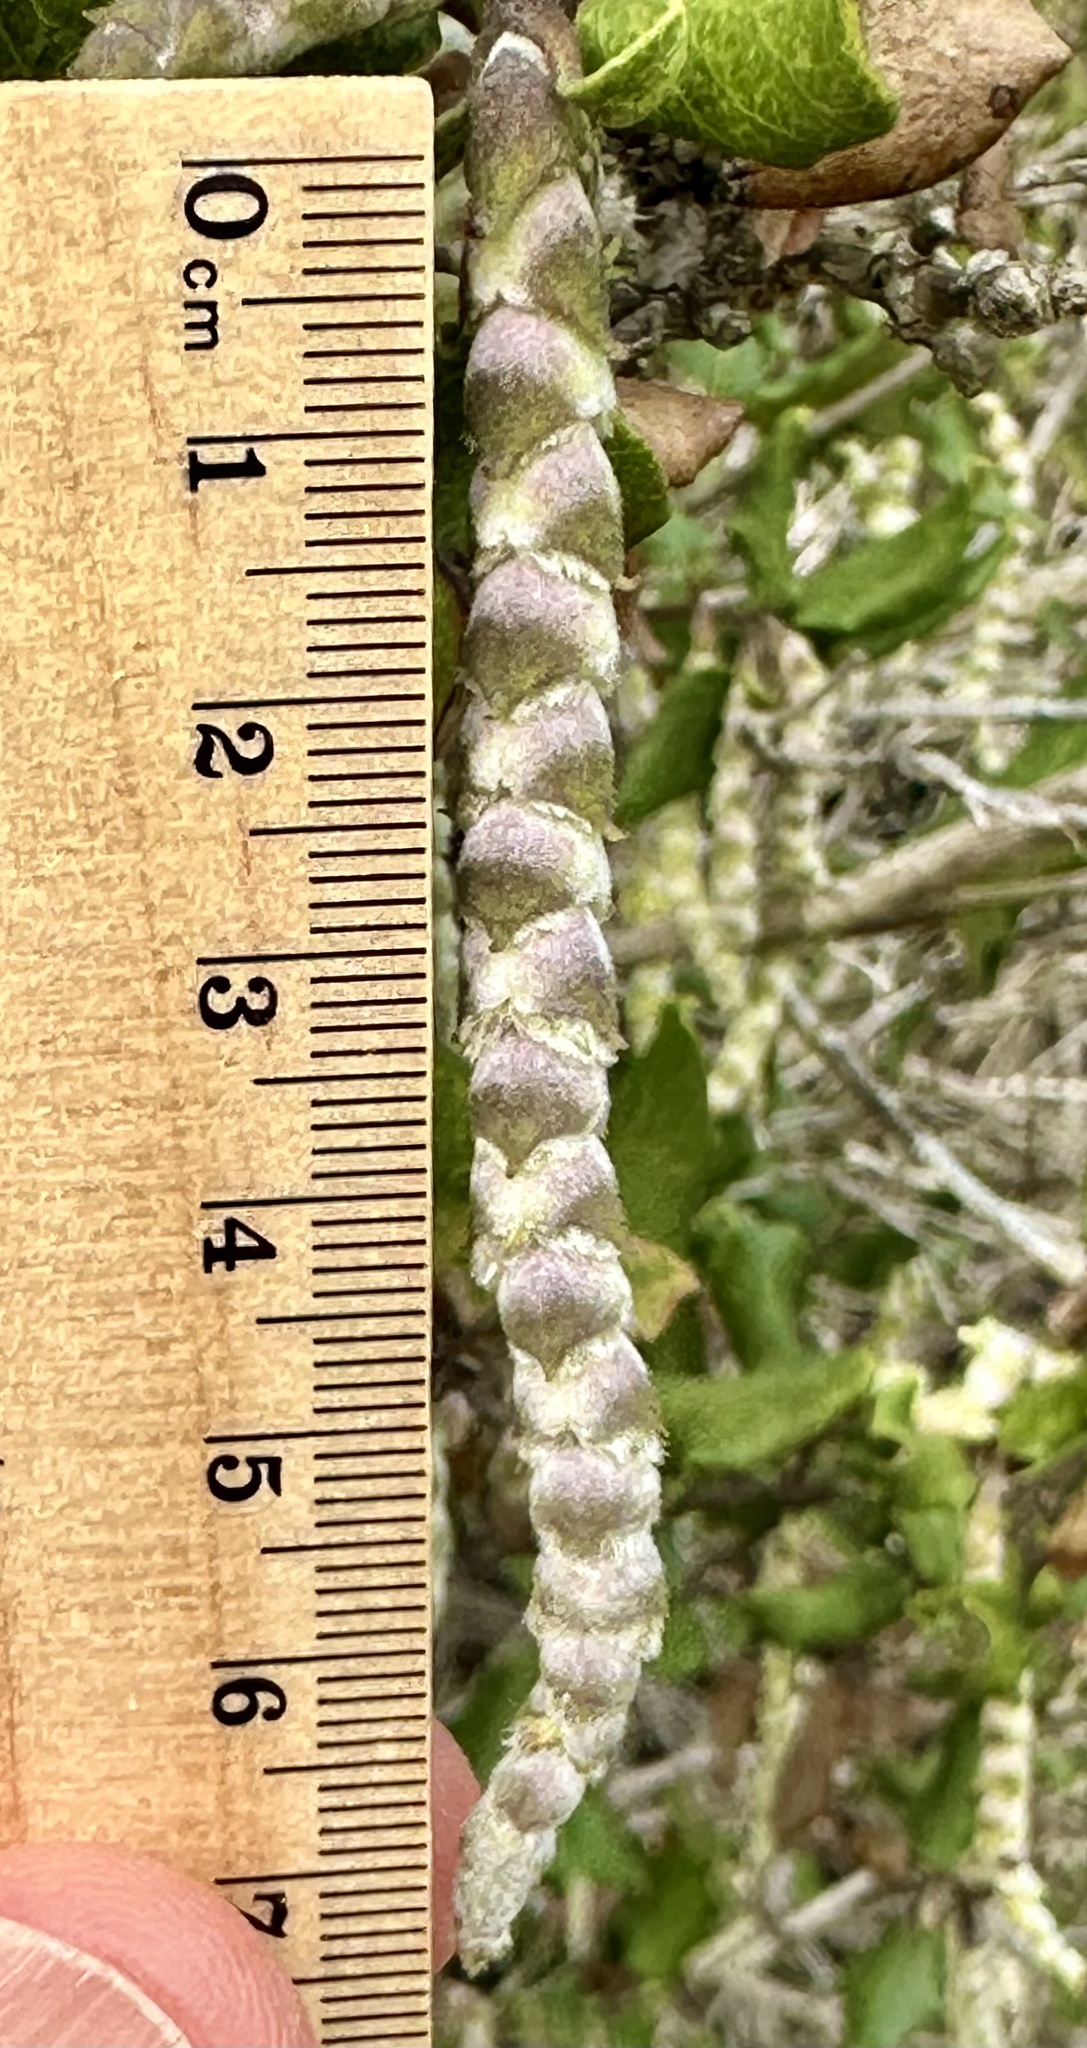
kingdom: Plantae
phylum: Tracheophyta
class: Magnoliopsida
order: Garryales
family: Garryaceae
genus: Garrya
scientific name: Garrya elliptica
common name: Silk-tassel
